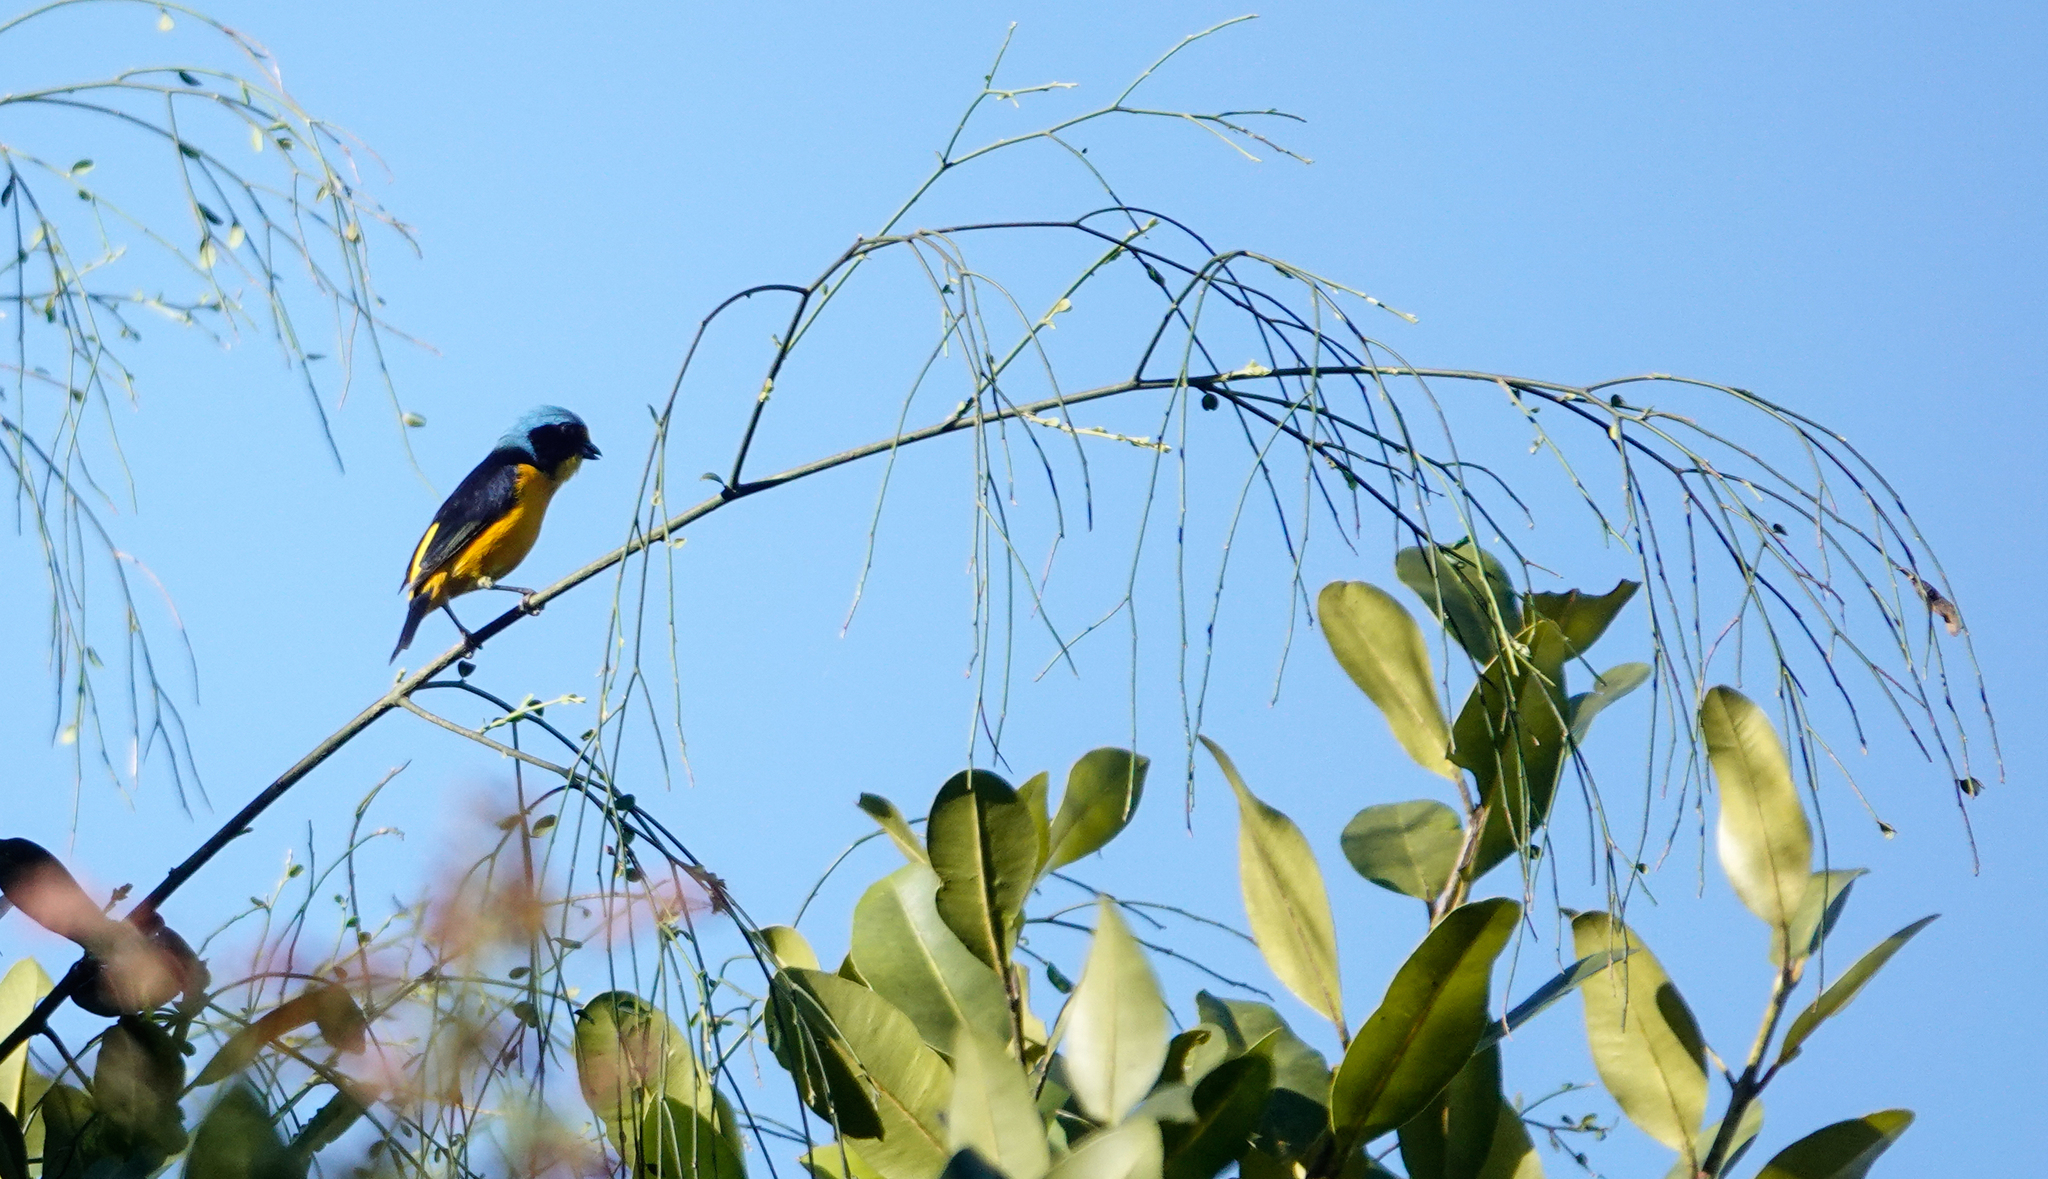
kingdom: Animalia
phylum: Chordata
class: Aves
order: Passeriformes
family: Fringillidae
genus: Euphonia
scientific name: Euphonia musica
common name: Antillean euphonia
